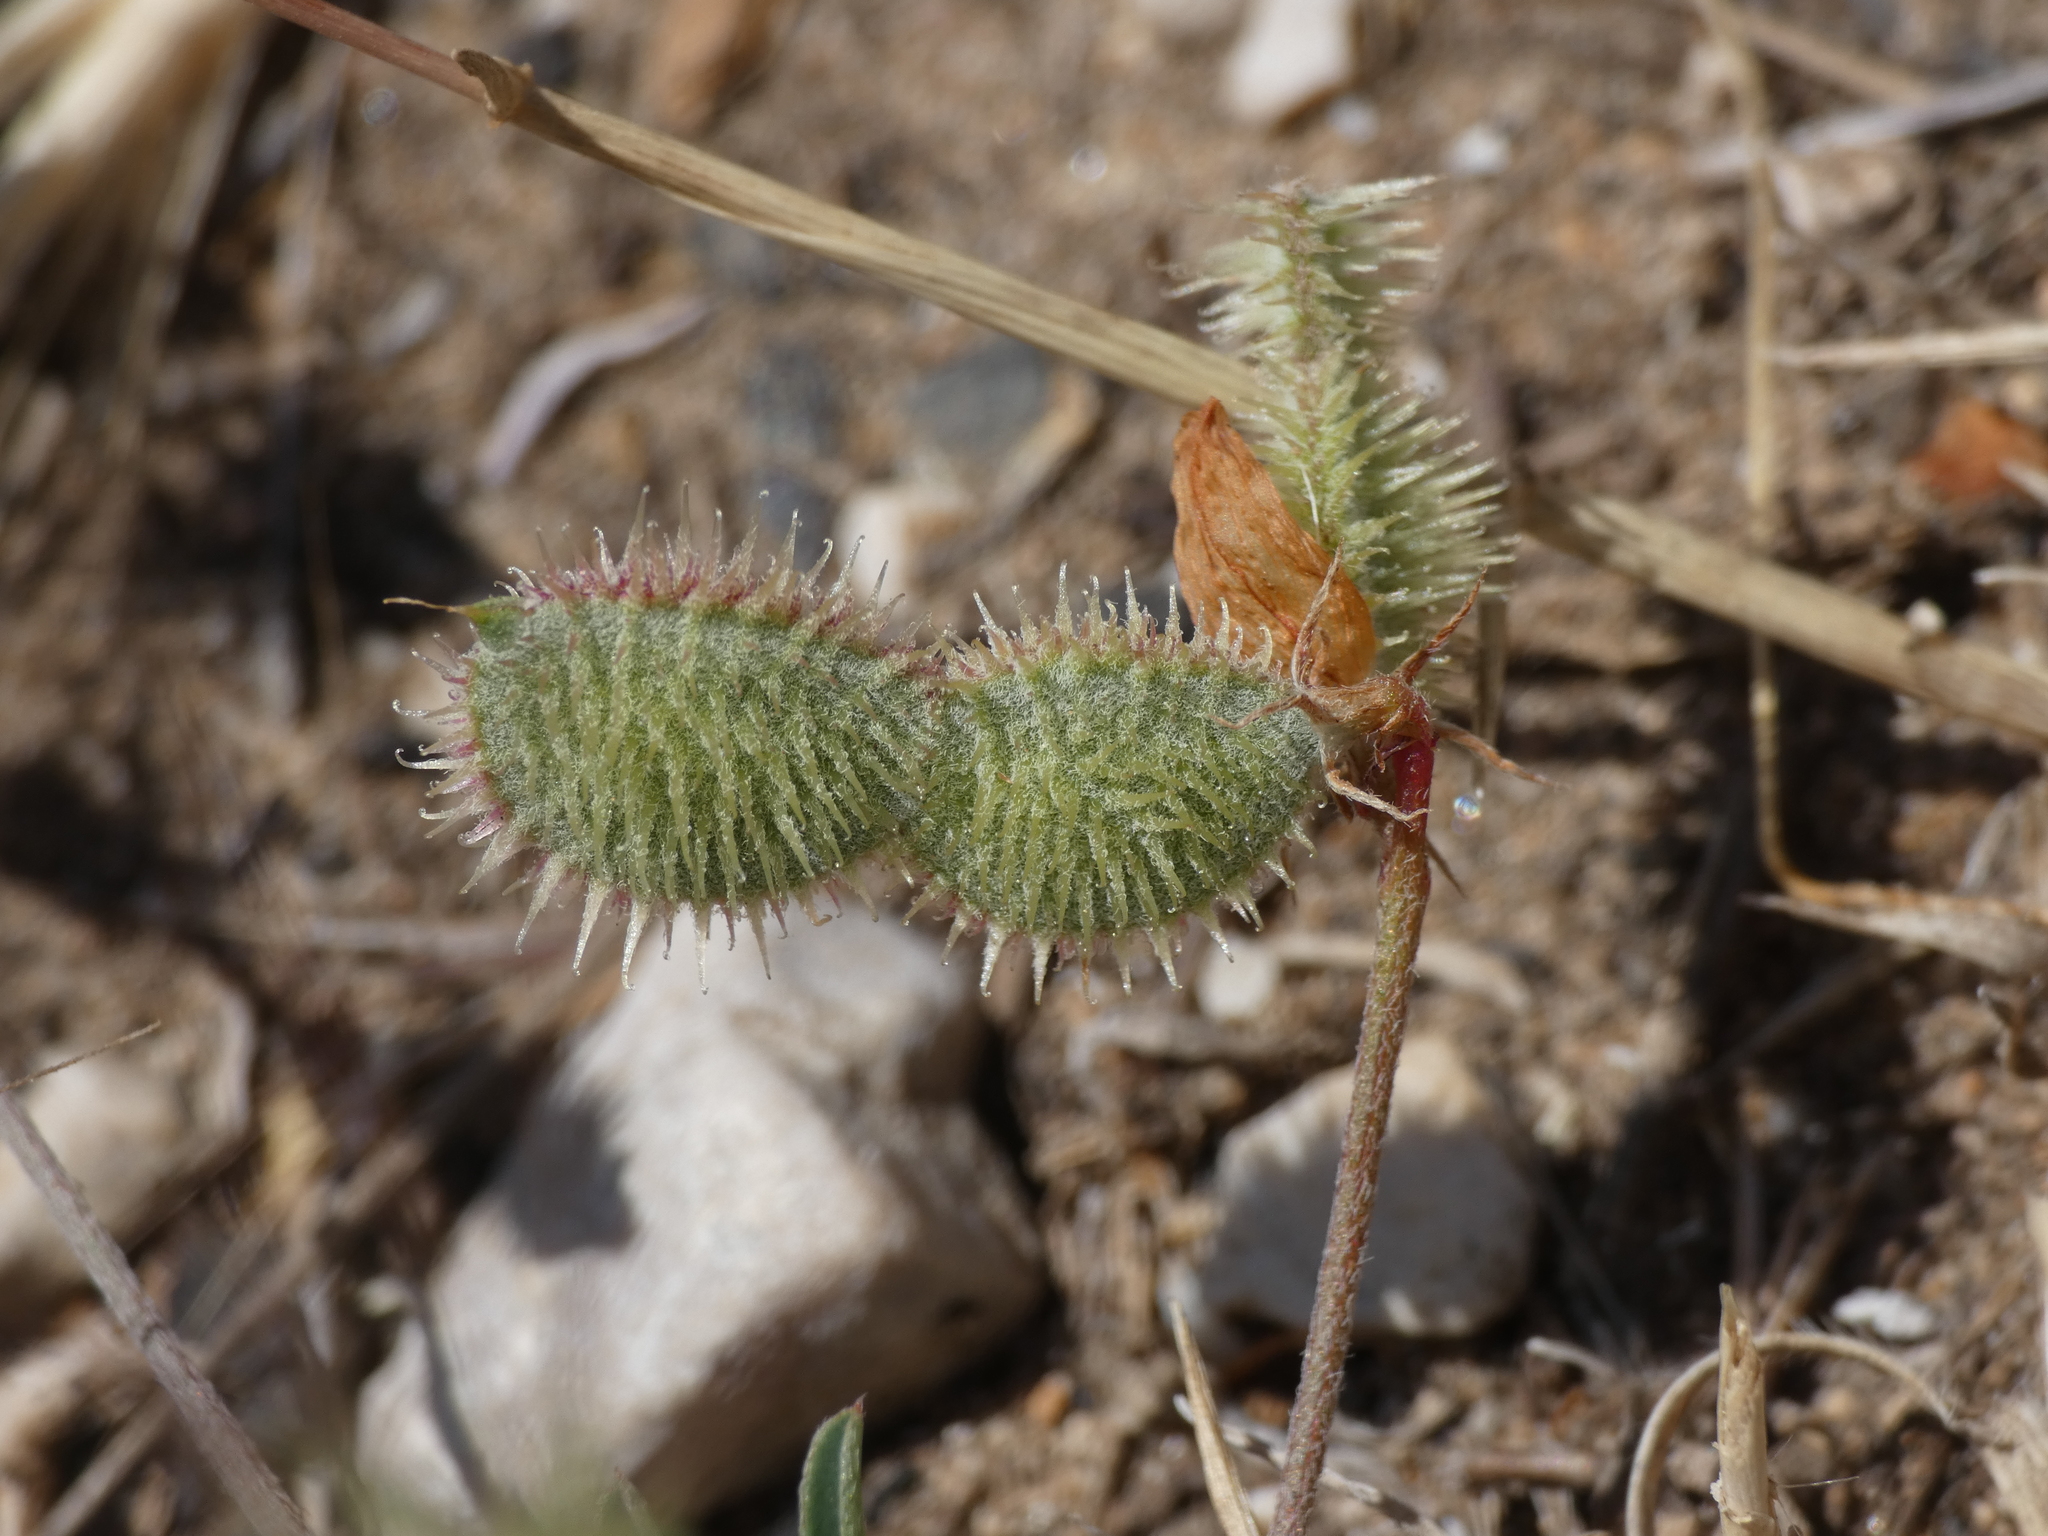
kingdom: Plantae
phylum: Tracheophyta
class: Magnoliopsida
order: Fabales
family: Fabaceae
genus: Sulla
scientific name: Sulla spinosissima
